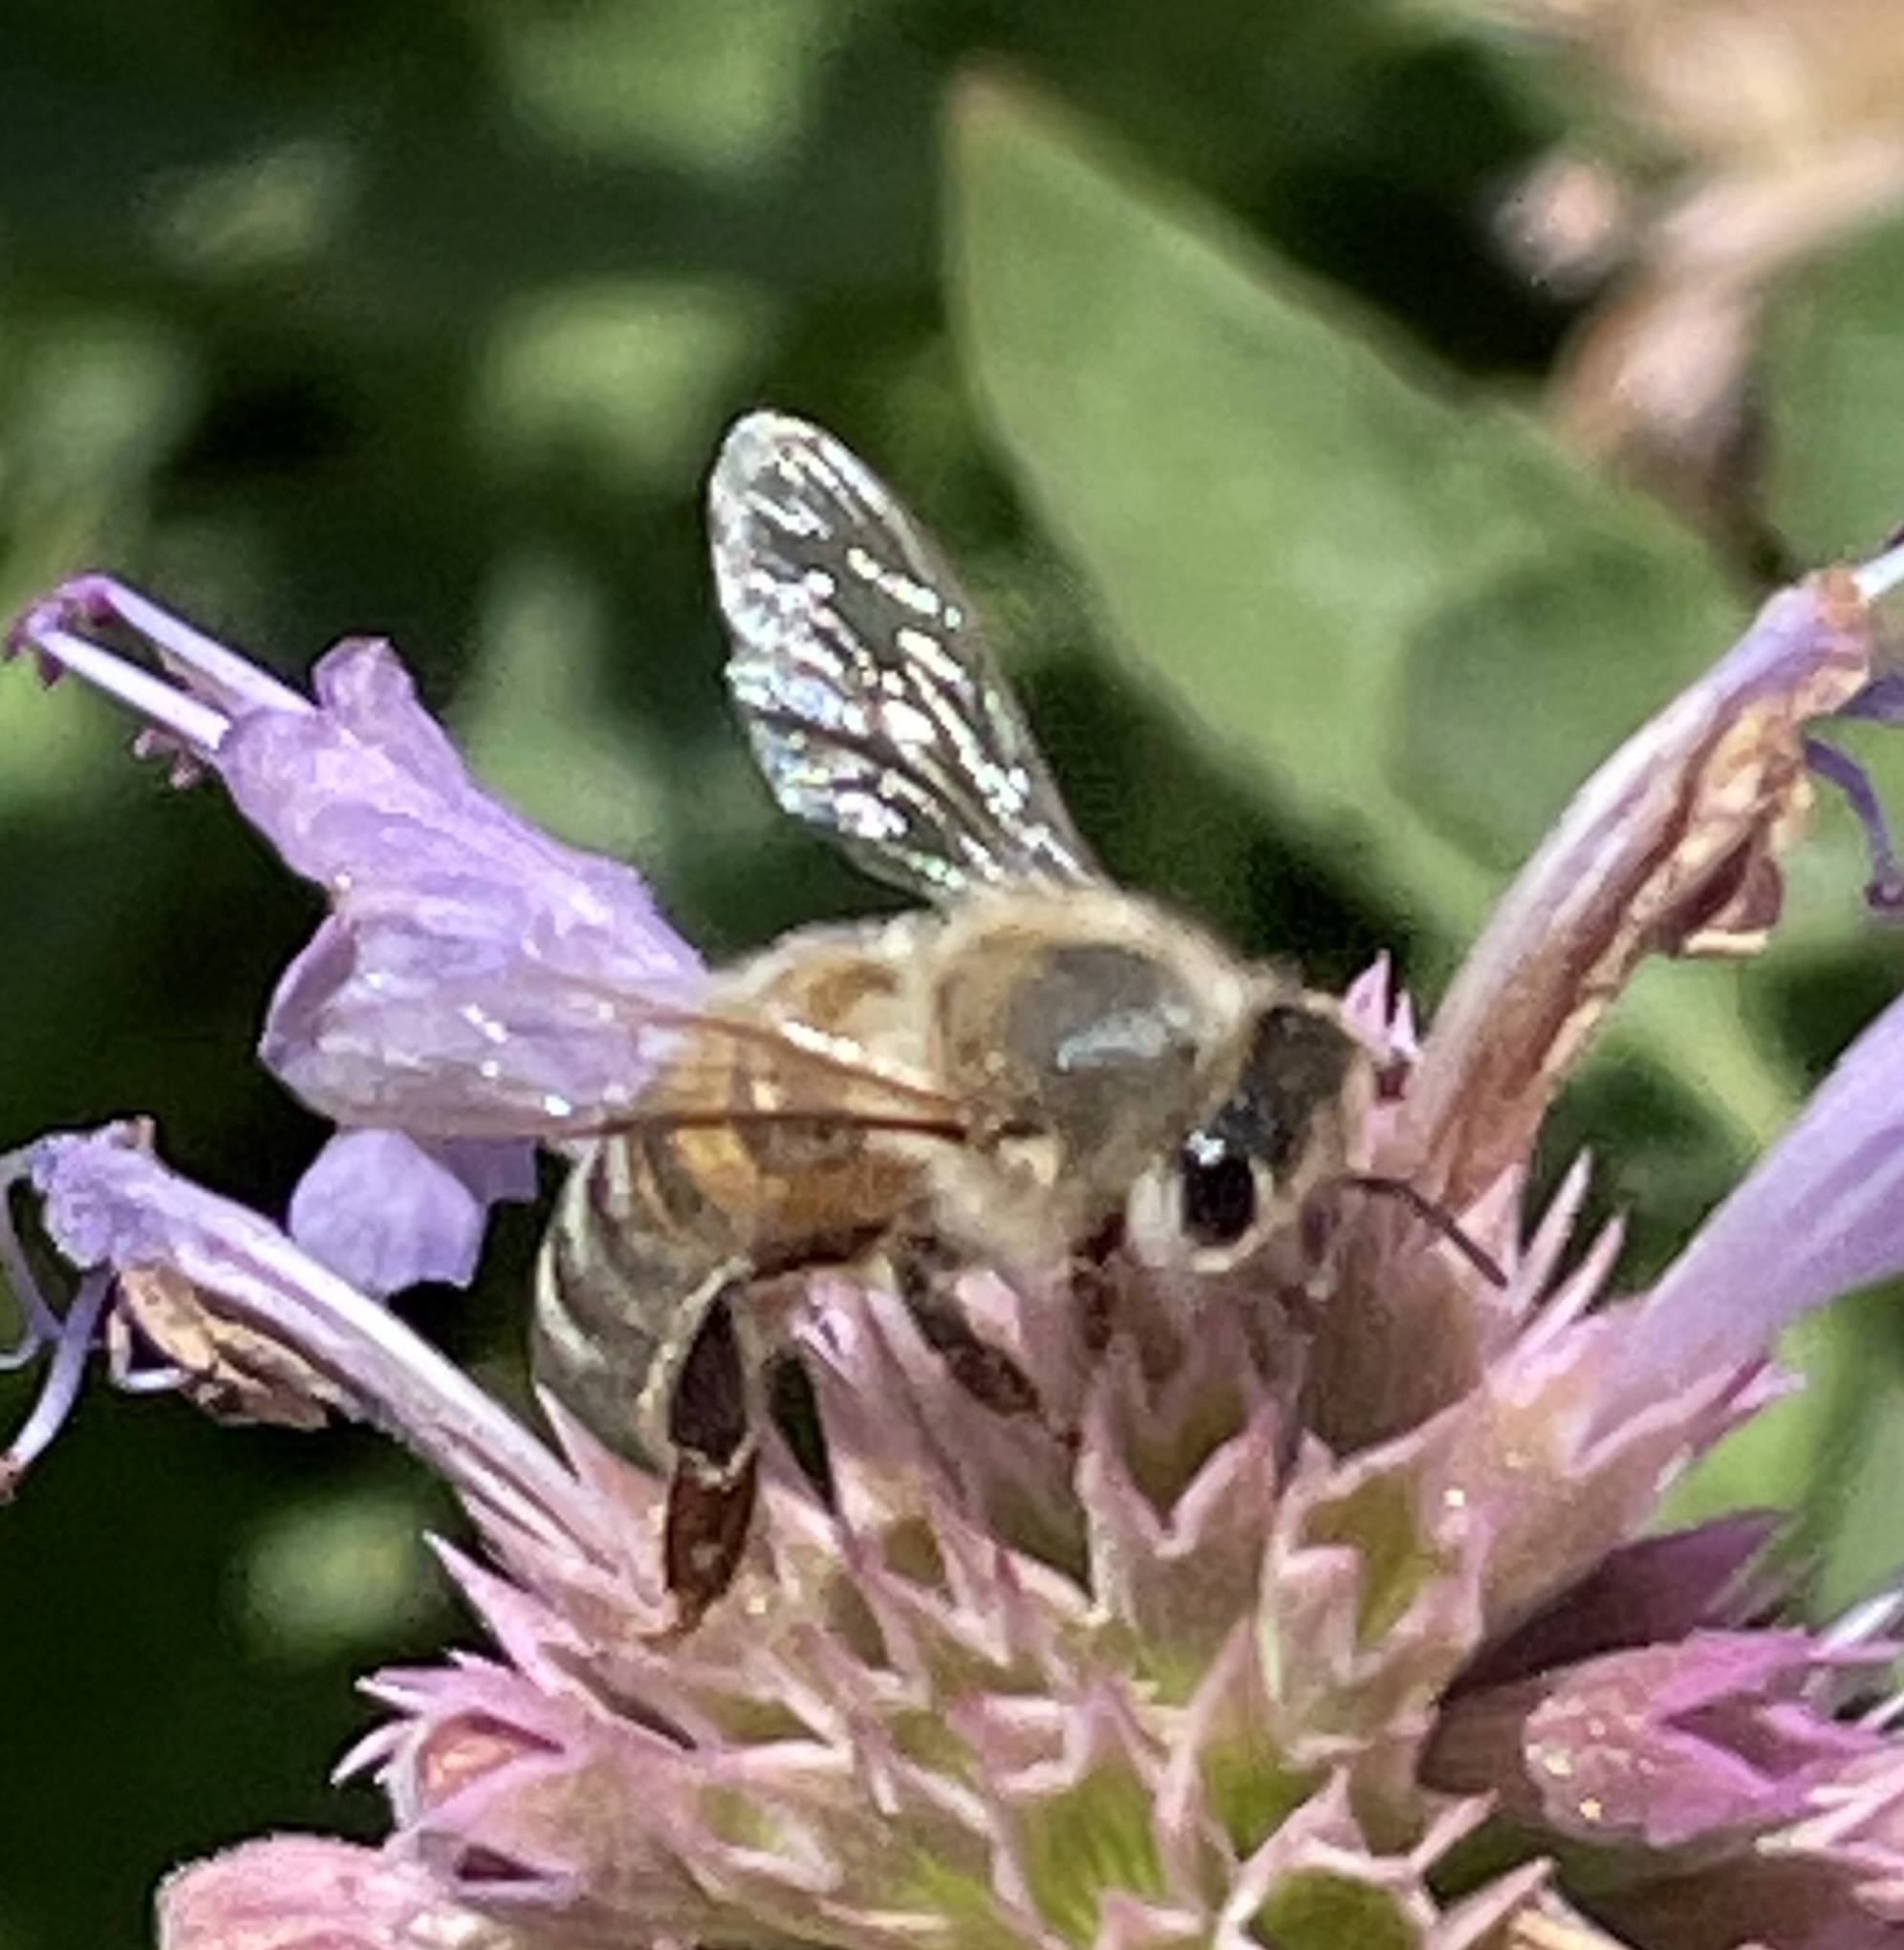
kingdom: Animalia
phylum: Arthropoda
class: Insecta
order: Hymenoptera
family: Apidae
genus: Apis
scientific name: Apis mellifera
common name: Honey bee
